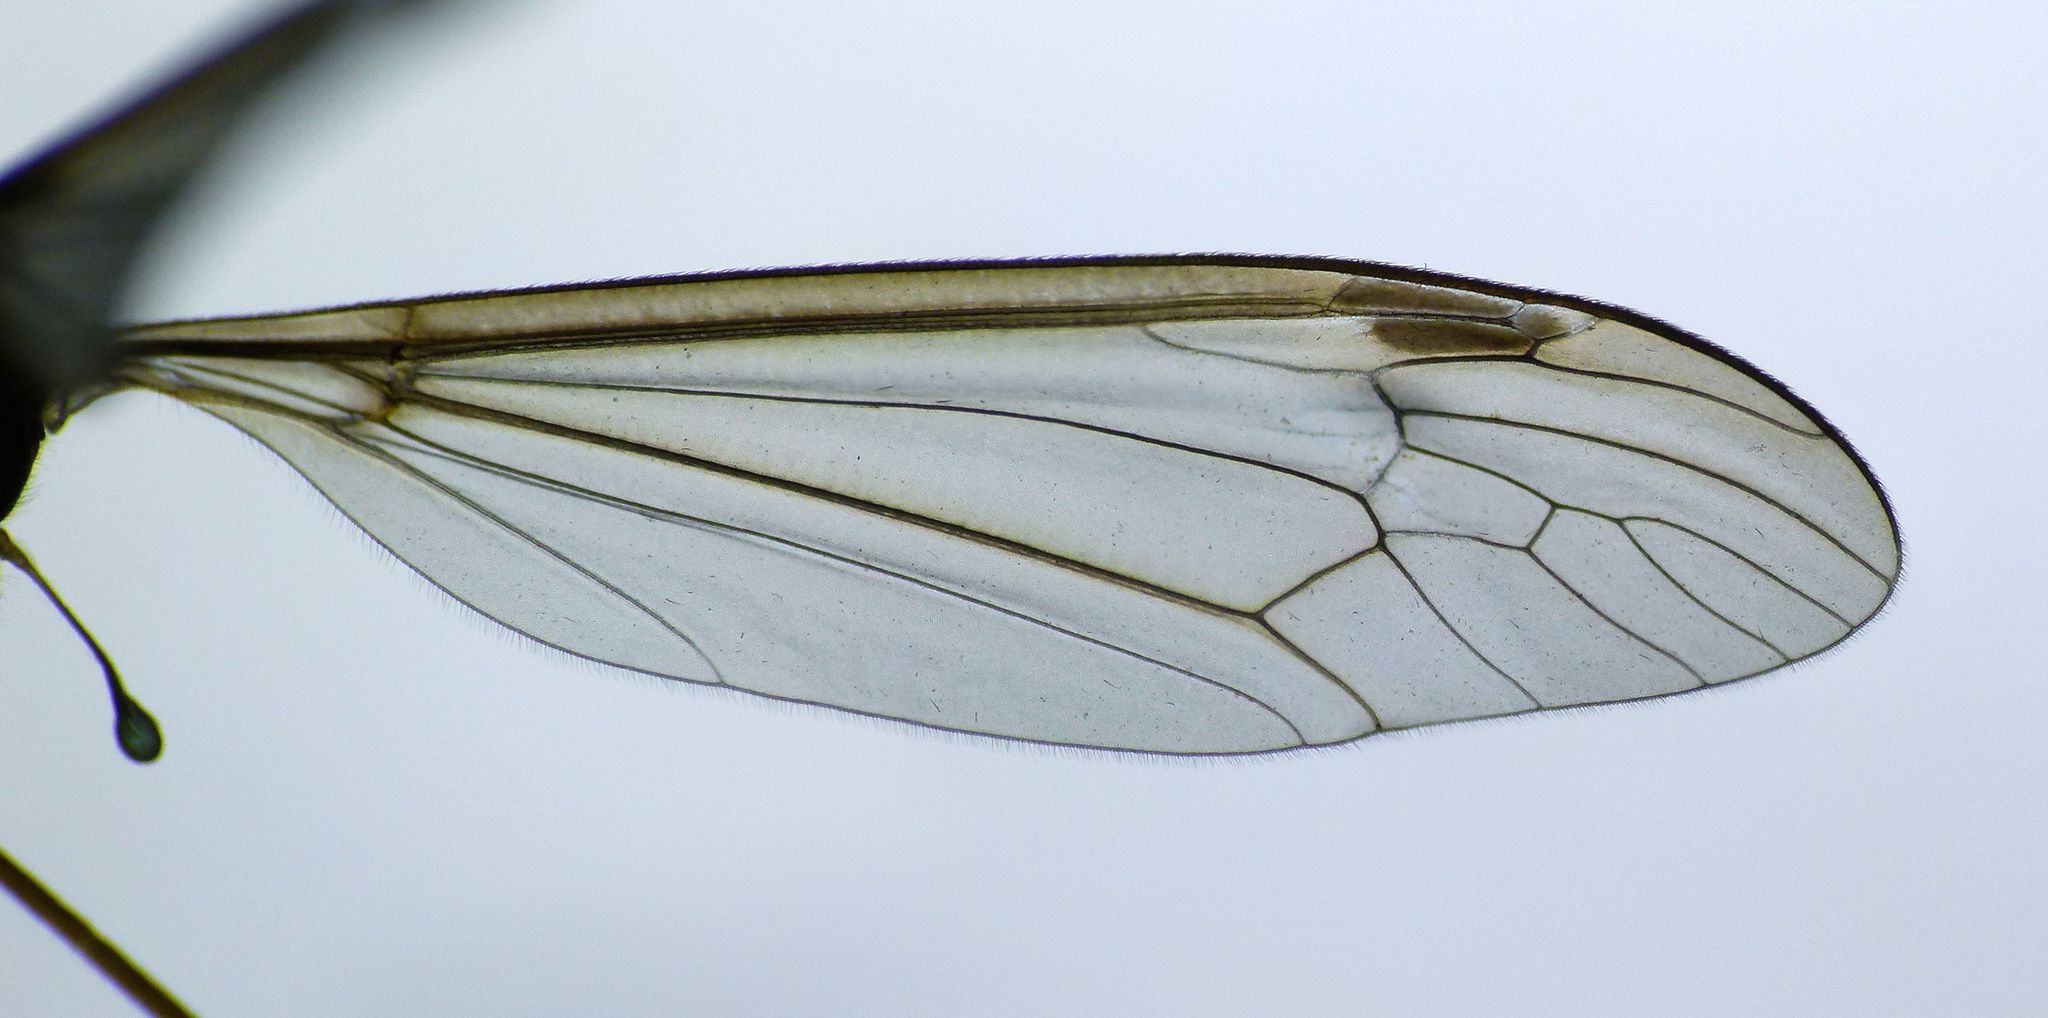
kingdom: Animalia
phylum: Arthropoda
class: Insecta
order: Diptera
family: Tipulidae
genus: Leptotarsus
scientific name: Leptotarsus mesocerus
